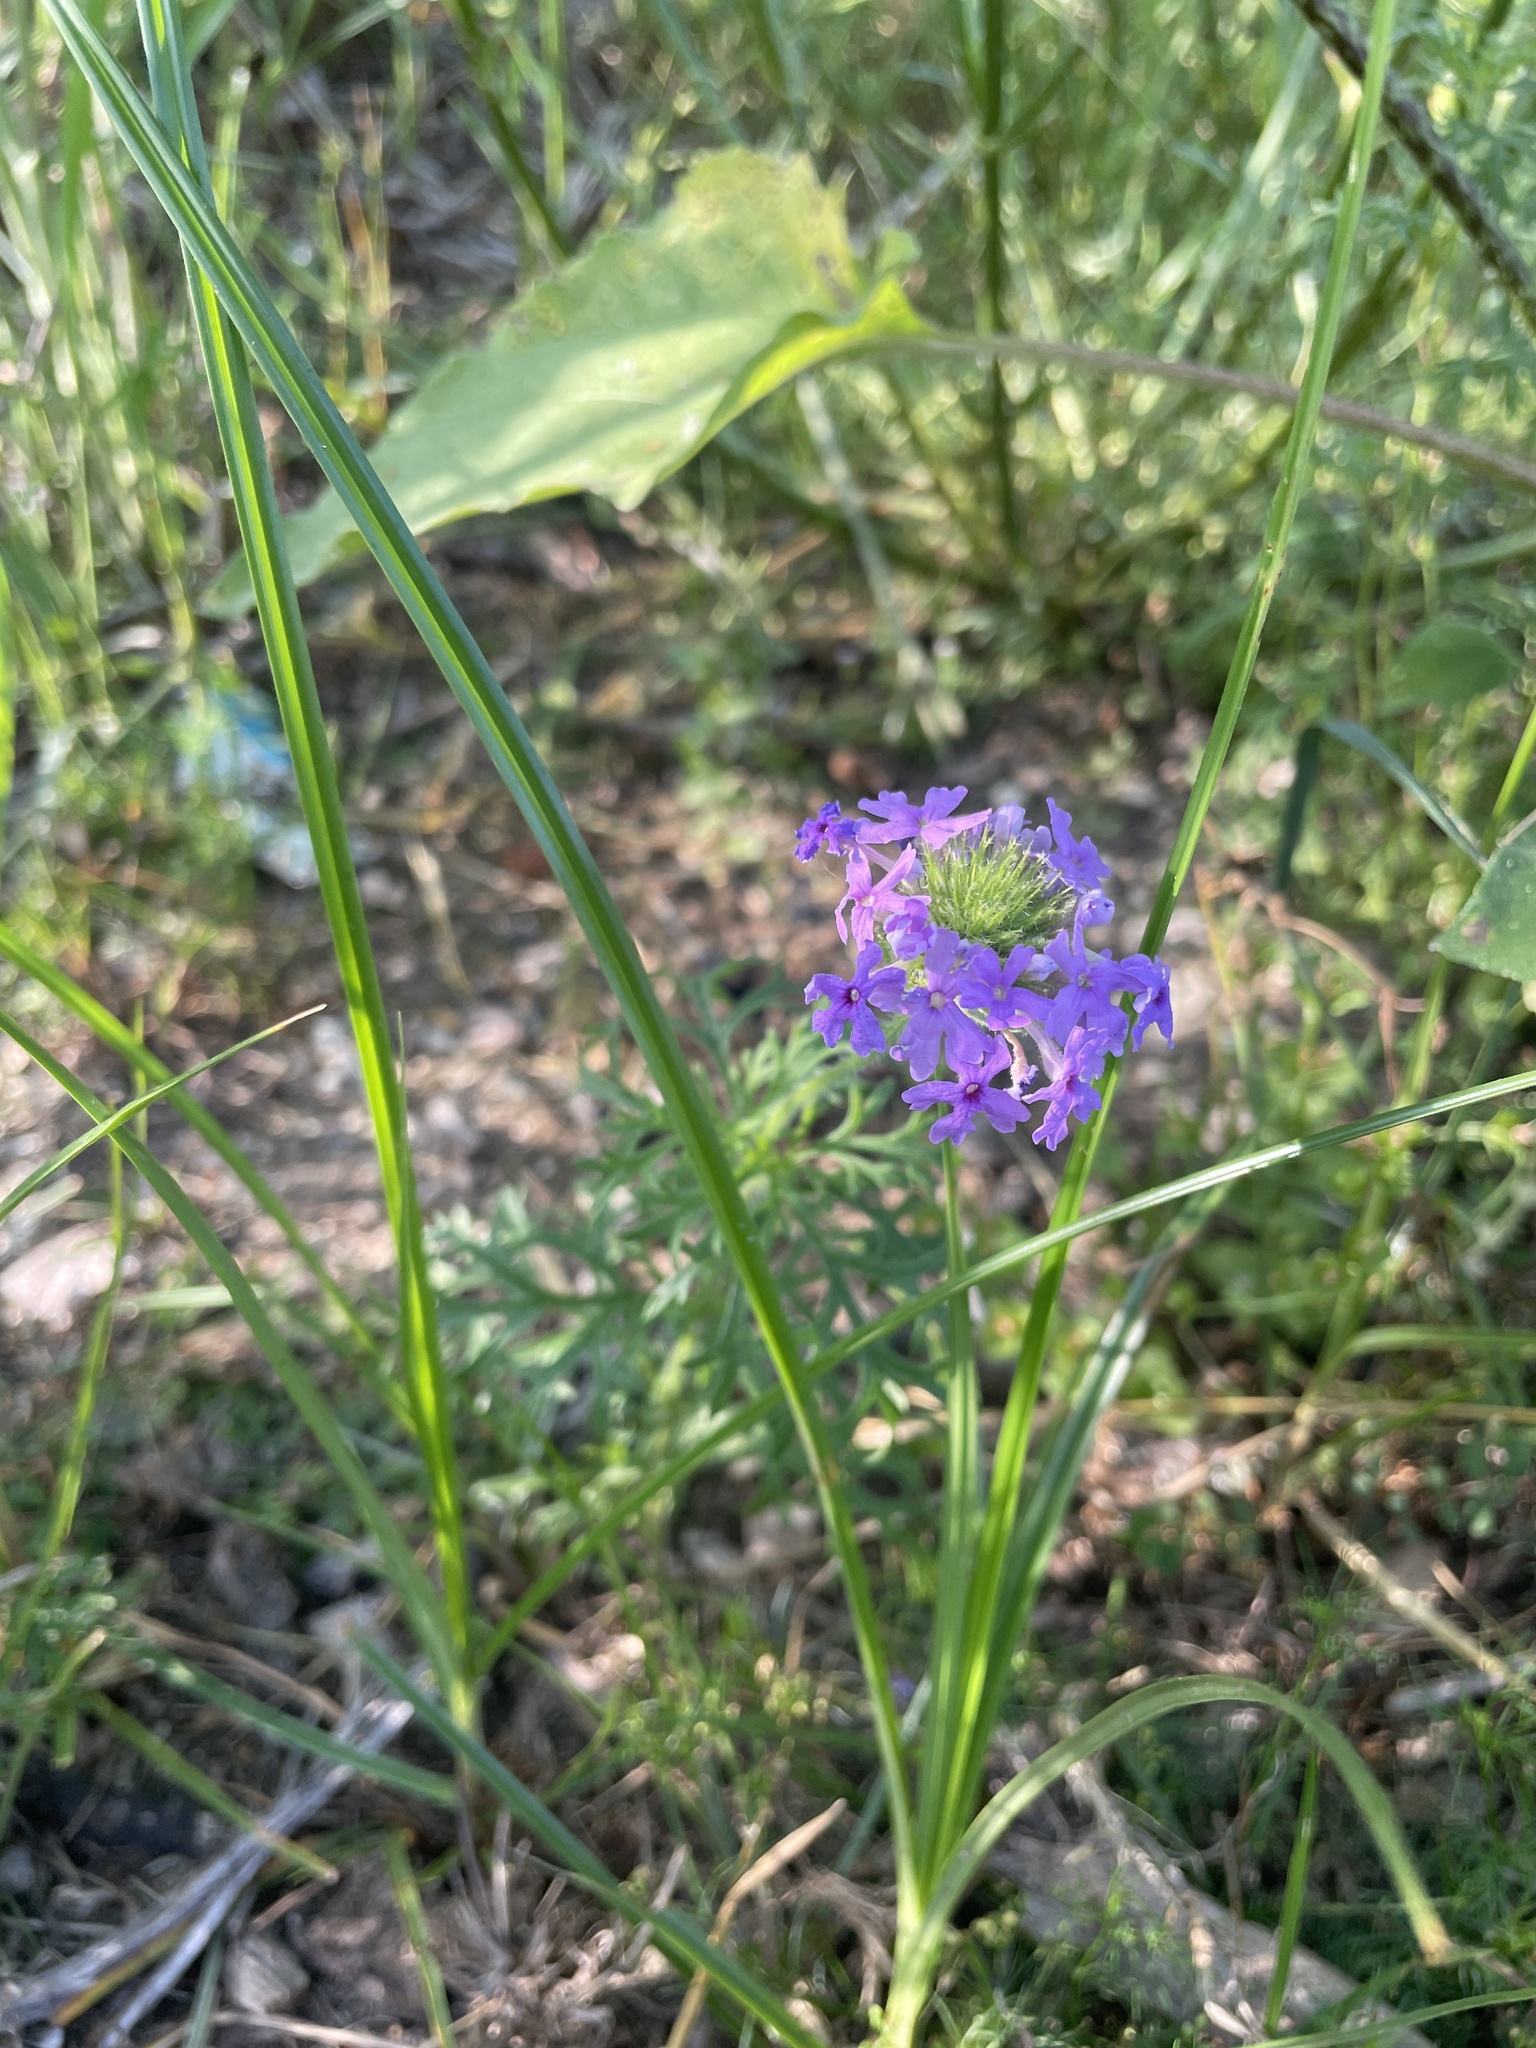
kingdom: Plantae
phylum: Tracheophyta
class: Magnoliopsida
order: Lamiales
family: Verbenaceae
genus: Verbena
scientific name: Verbena bipinnatifida
